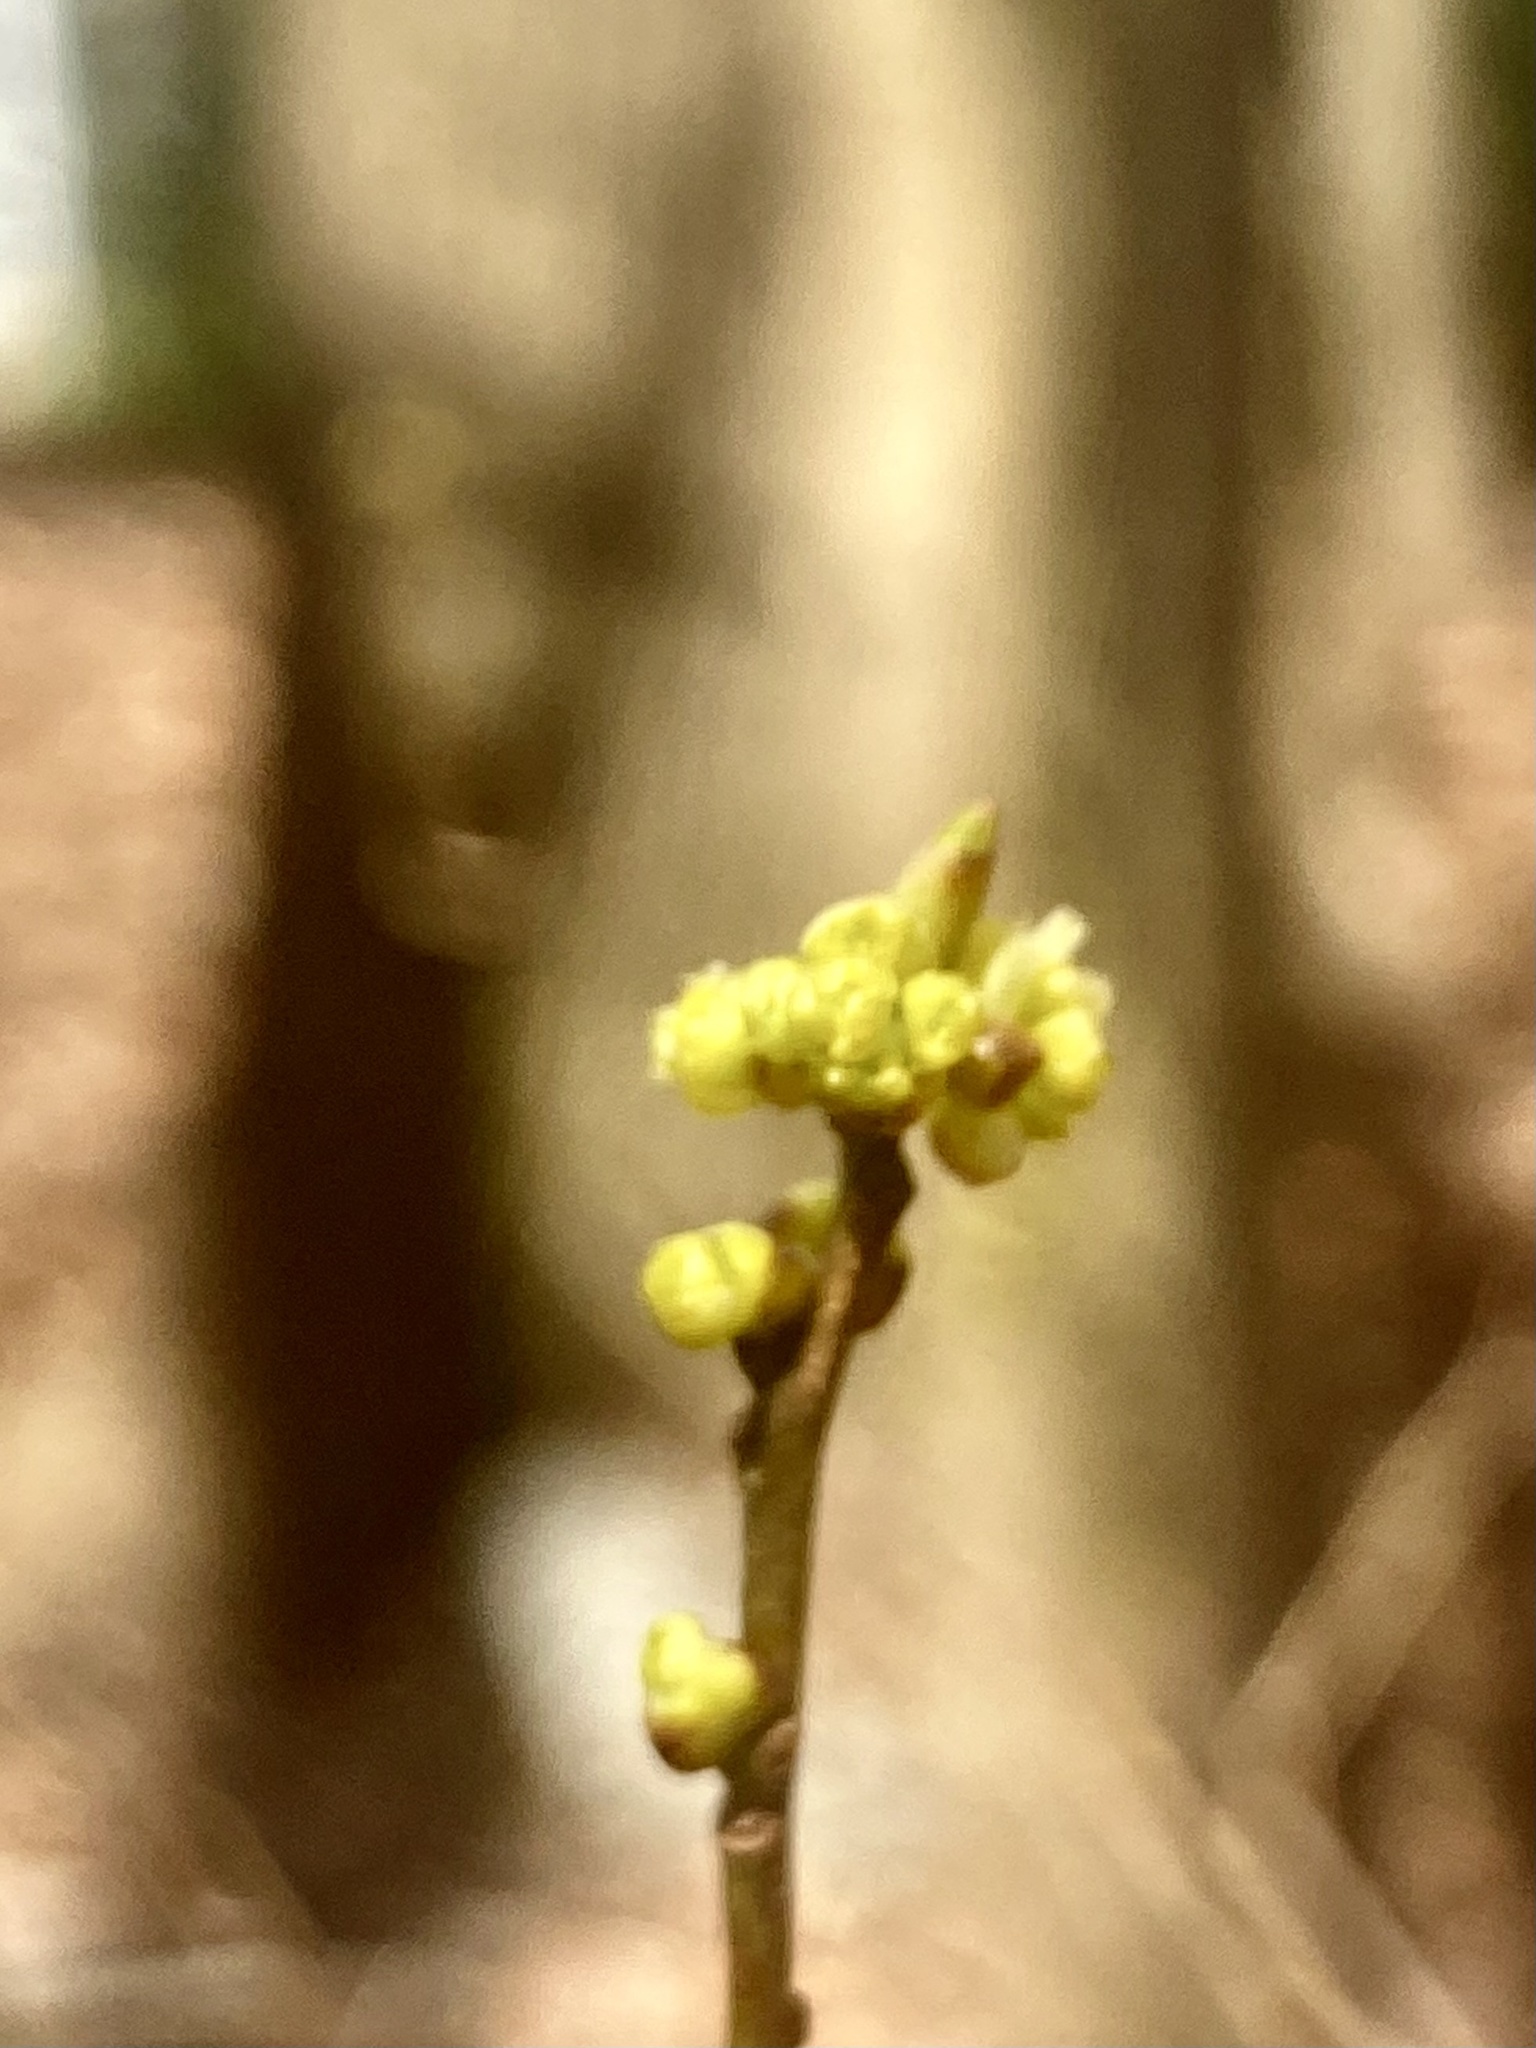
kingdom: Plantae
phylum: Tracheophyta
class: Magnoliopsida
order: Laurales
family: Lauraceae
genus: Lindera
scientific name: Lindera benzoin
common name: Spicebush
